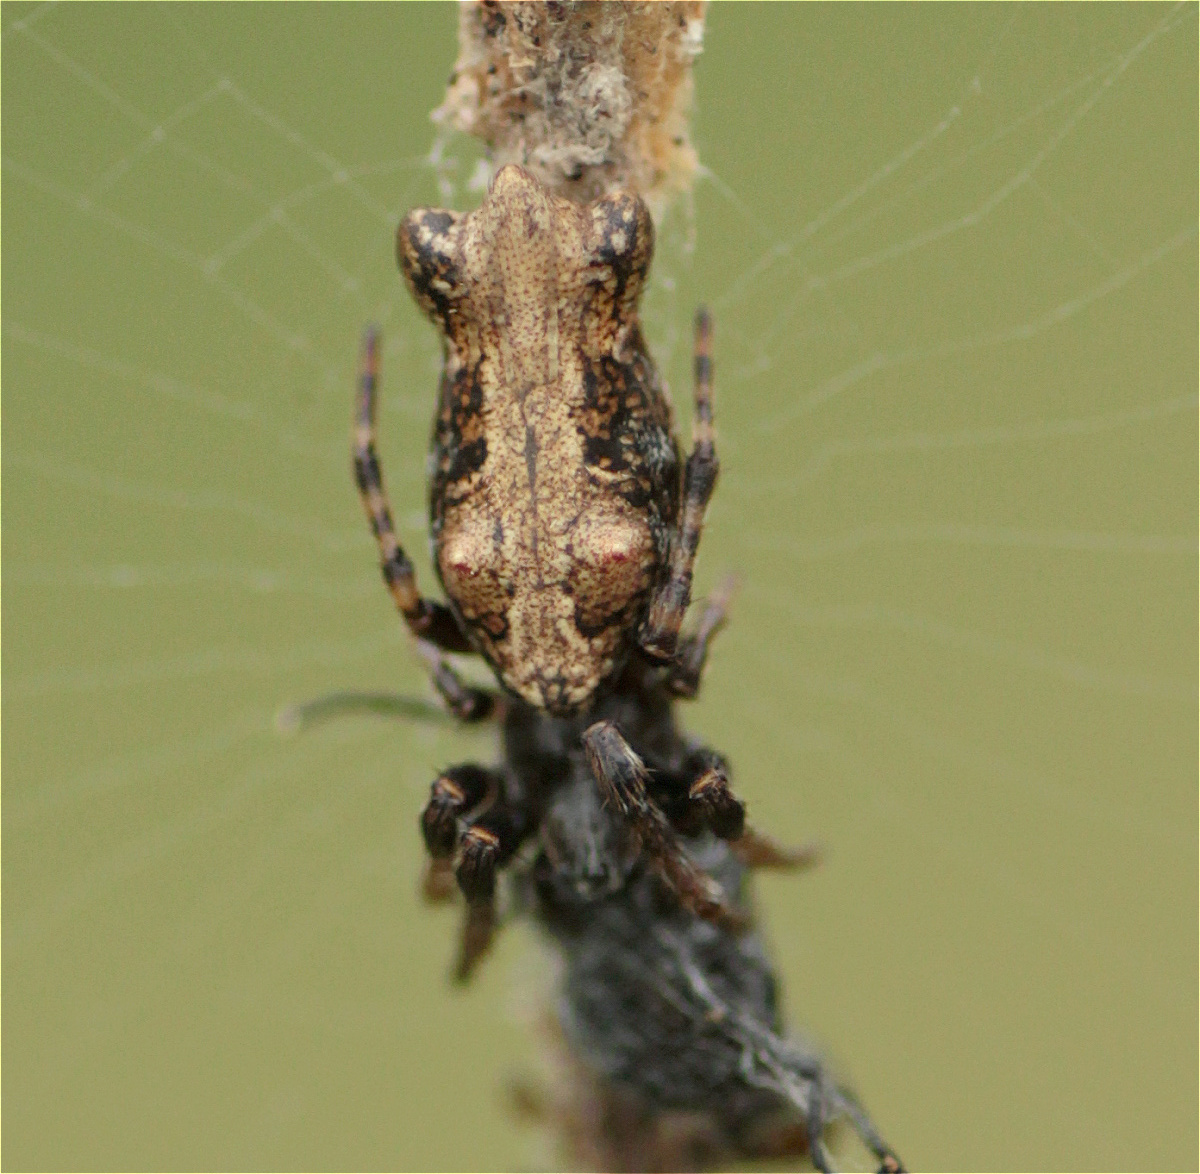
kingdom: Animalia
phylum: Arthropoda
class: Arachnida
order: Araneae
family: Araneidae
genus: Cyclosa
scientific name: Cyclosa bifurcata
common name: Orb weavers
